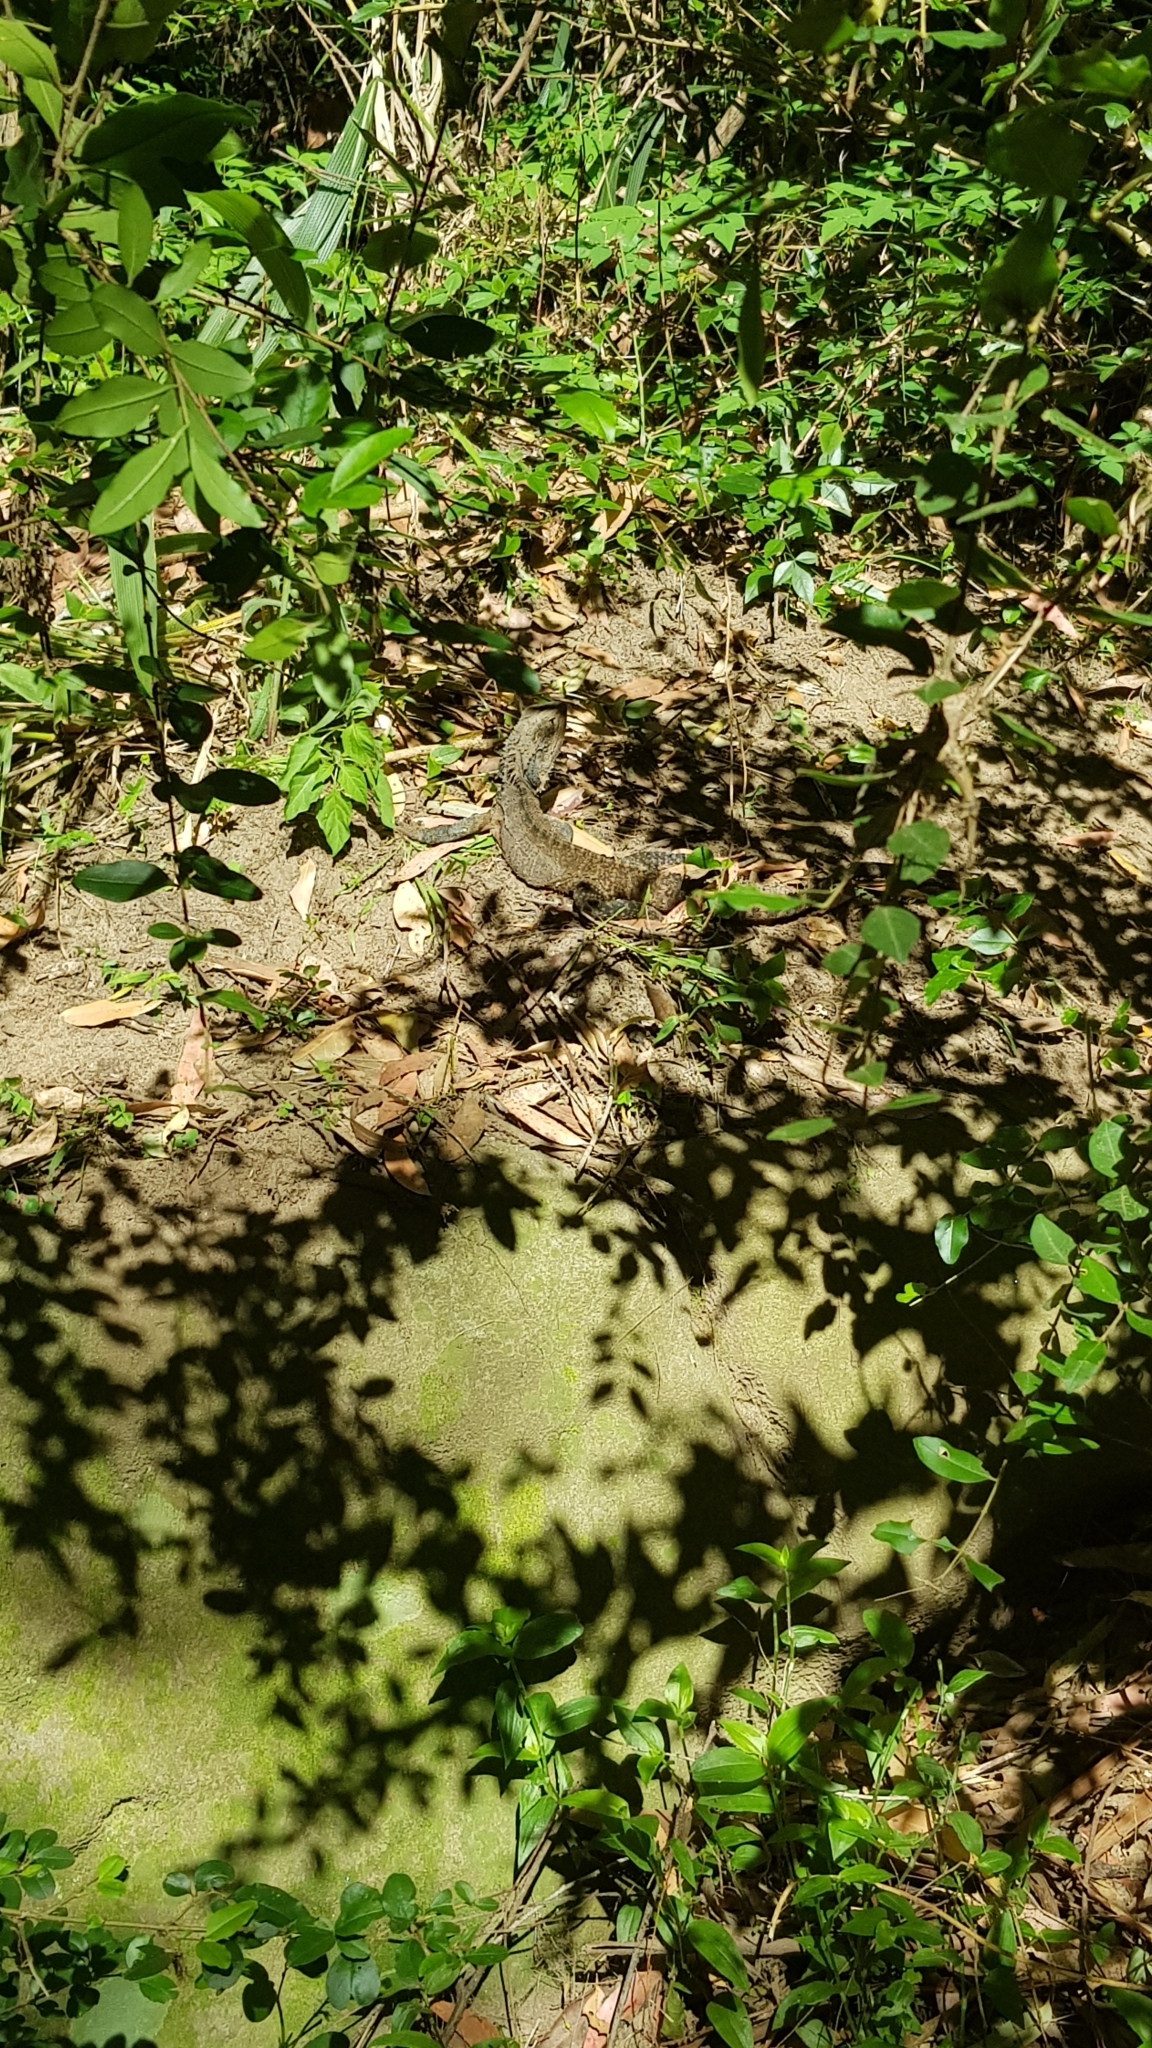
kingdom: Animalia
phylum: Chordata
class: Squamata
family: Agamidae
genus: Intellagama
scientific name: Intellagama lesueurii
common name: Eastern water dragon
